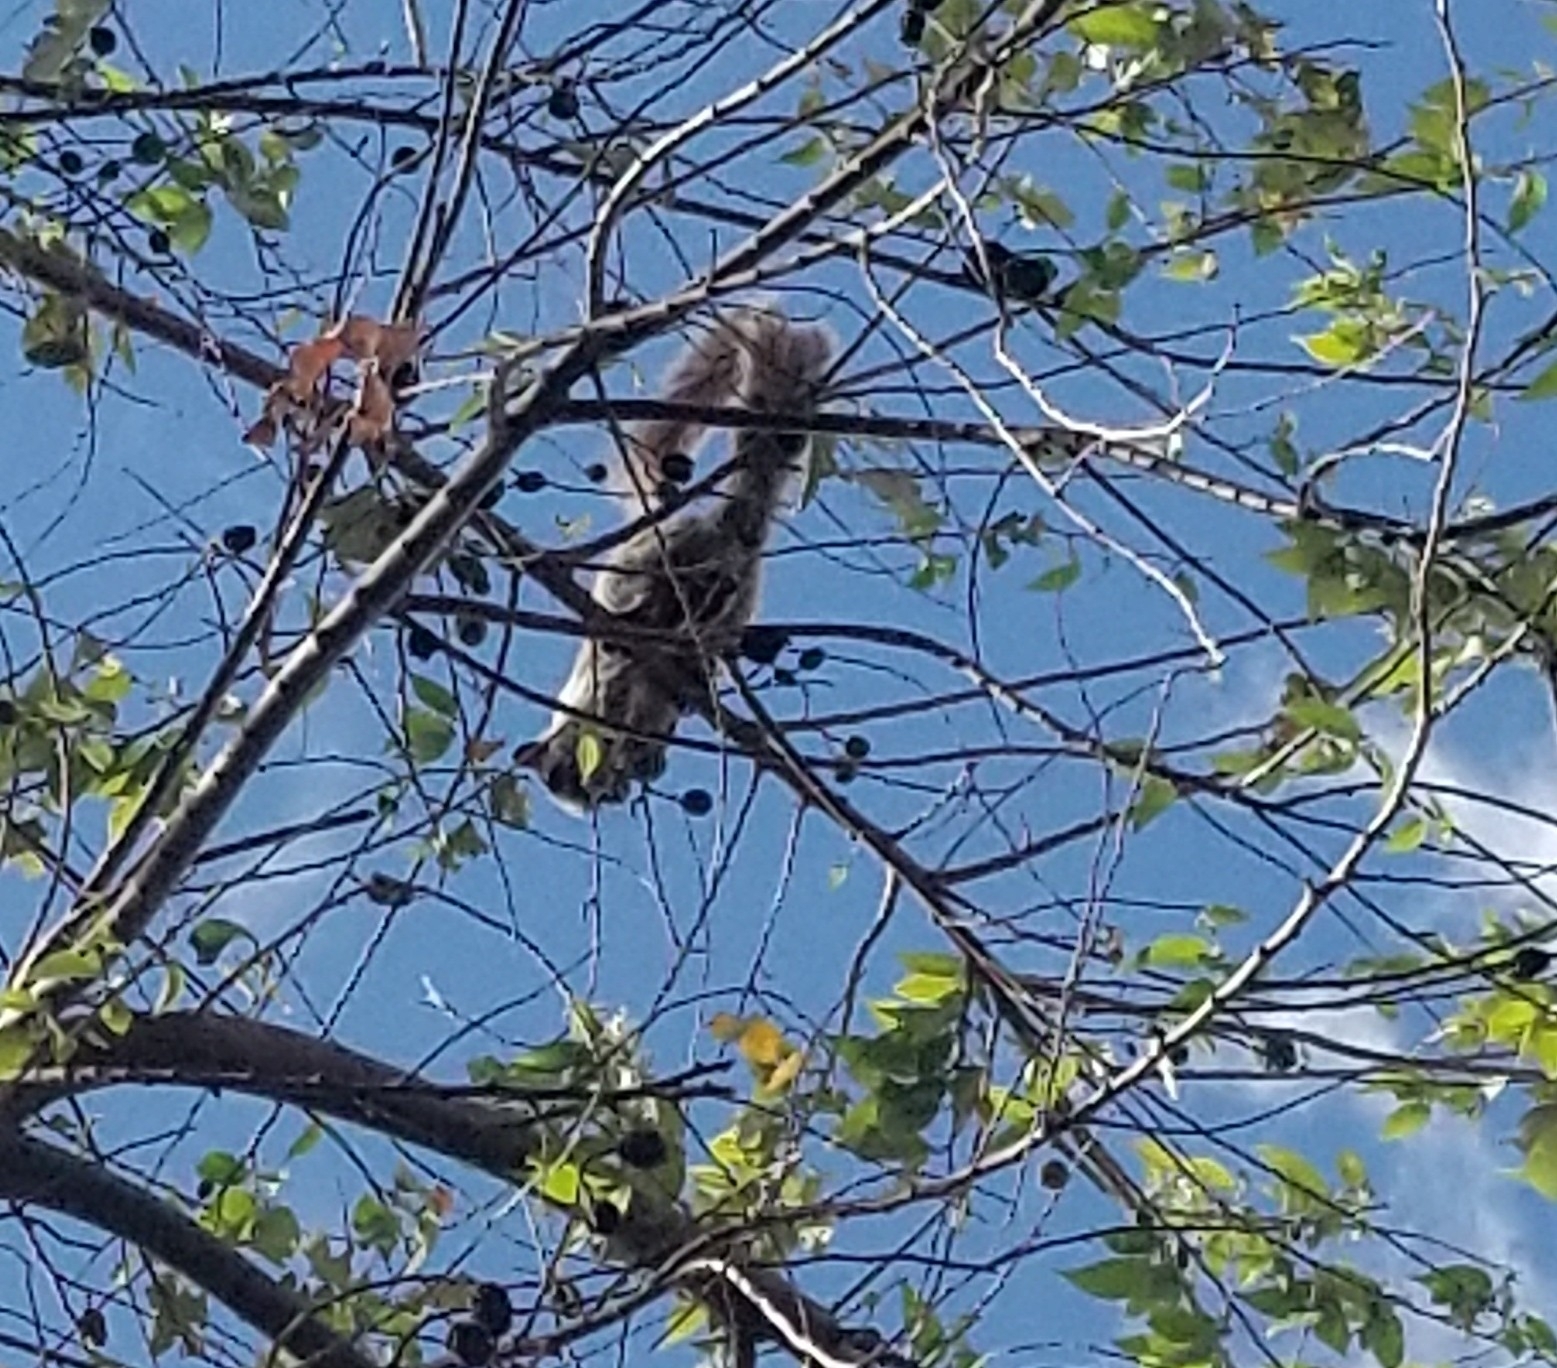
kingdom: Animalia
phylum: Chordata
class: Mammalia
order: Rodentia
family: Sciuridae
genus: Sciurus
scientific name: Sciurus variegatoides
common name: Variegated squirrel
